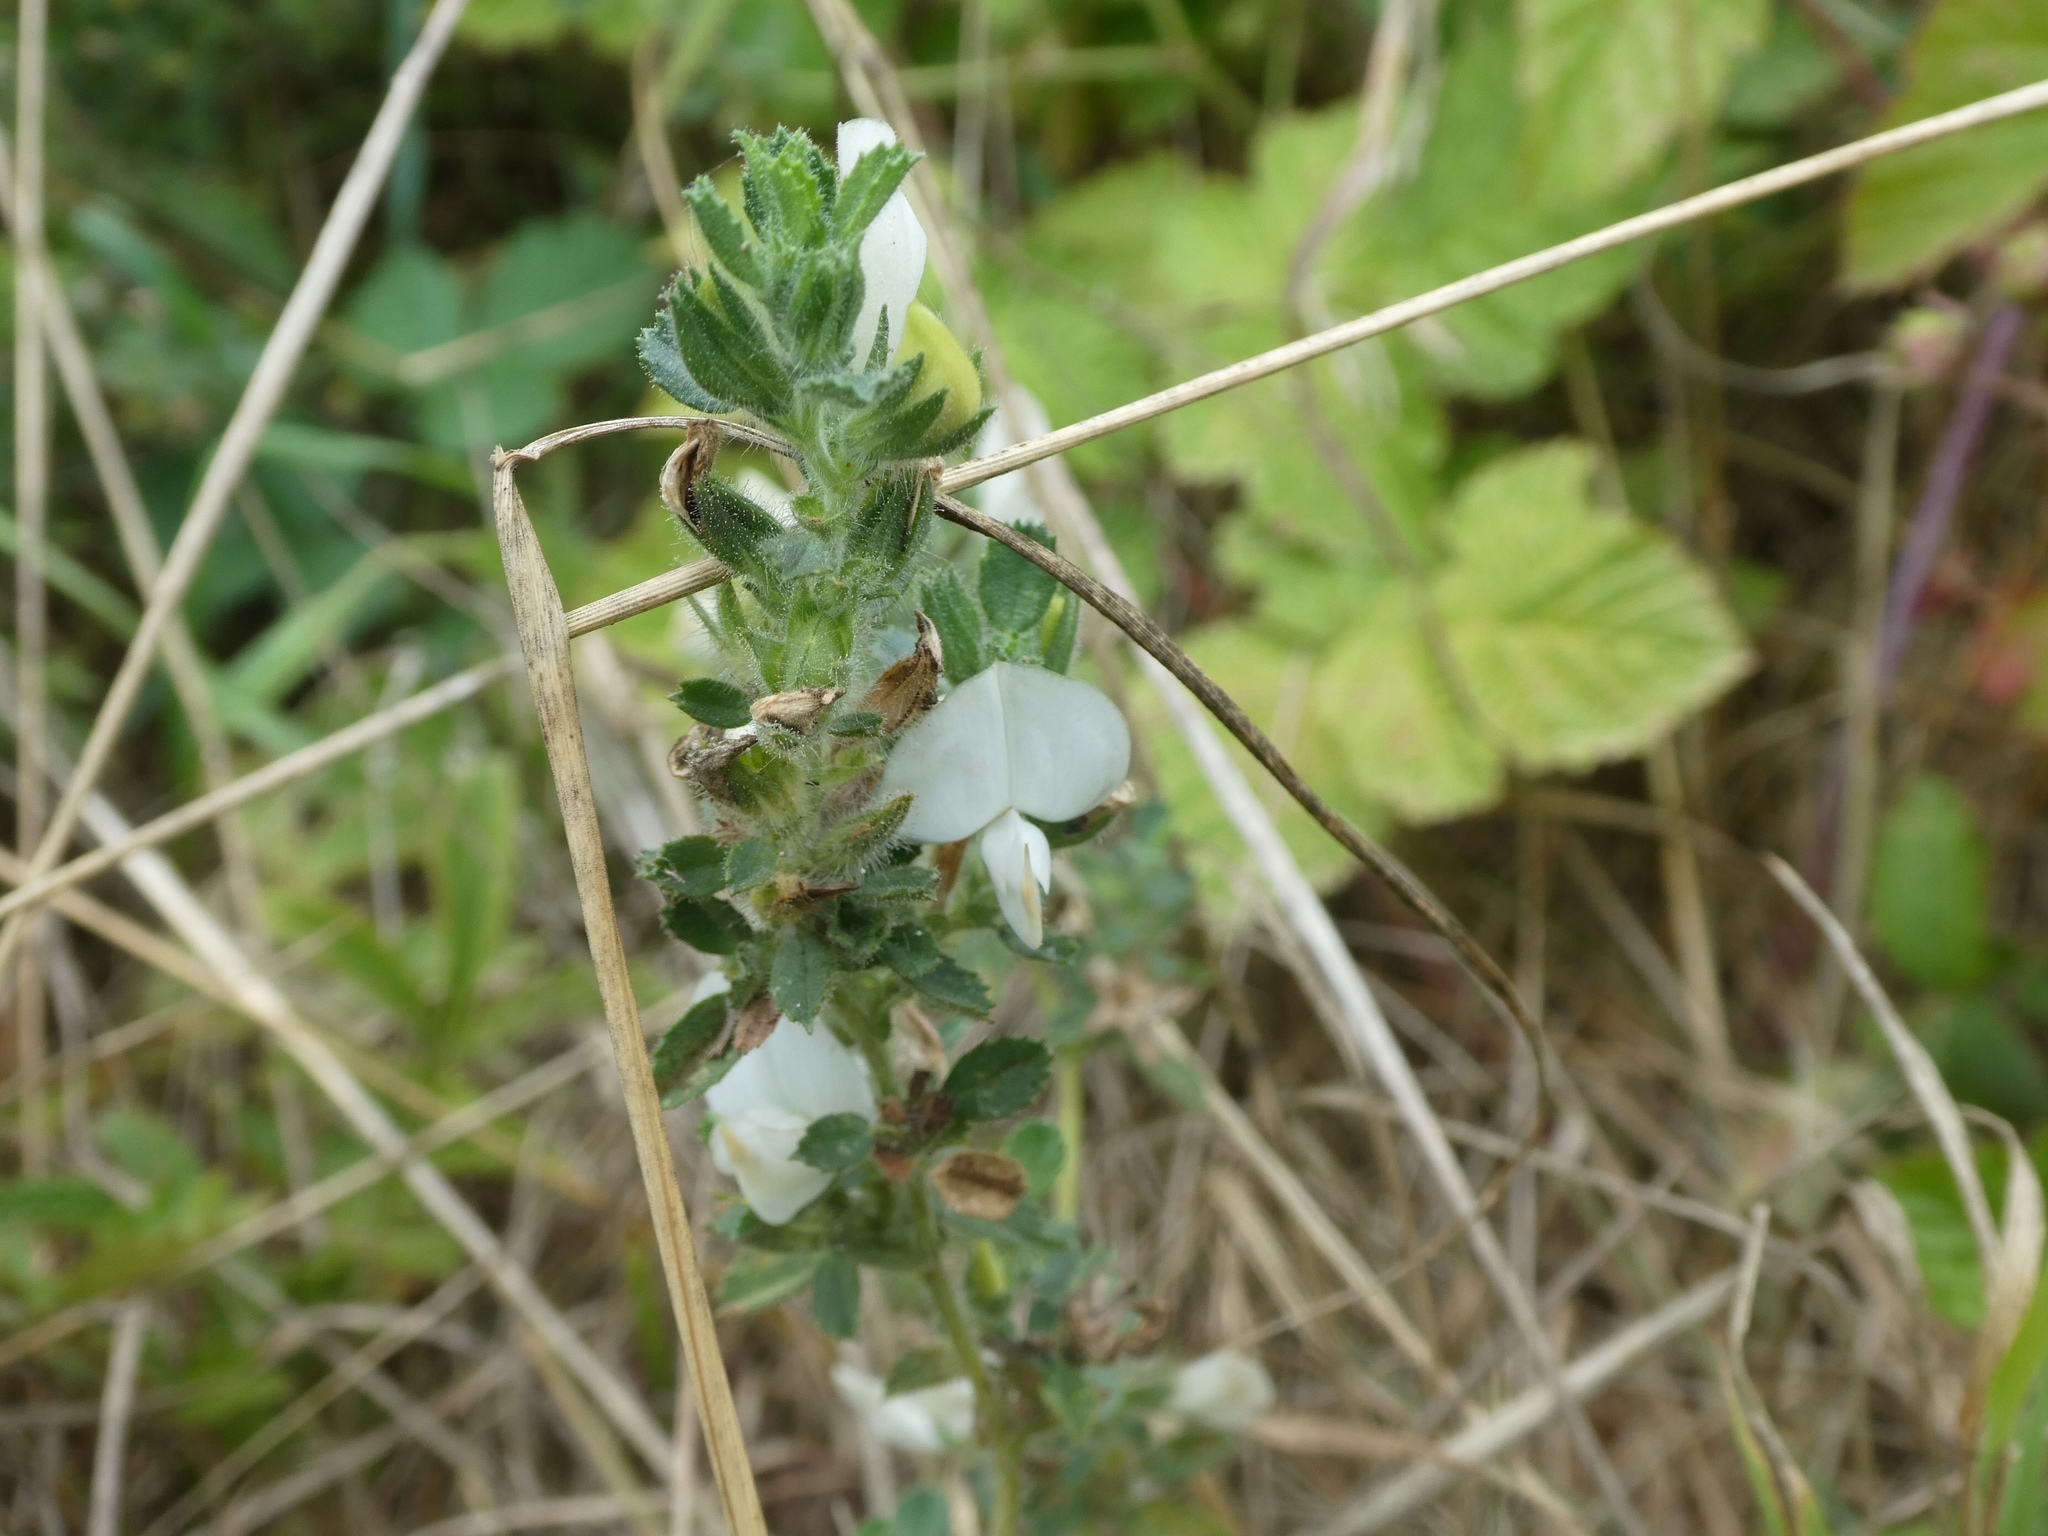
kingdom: Plantae
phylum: Tracheophyta
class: Magnoliopsida
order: Fabales
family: Fabaceae
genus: Ononis
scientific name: Ononis spinosa
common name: Spiny restharrow
